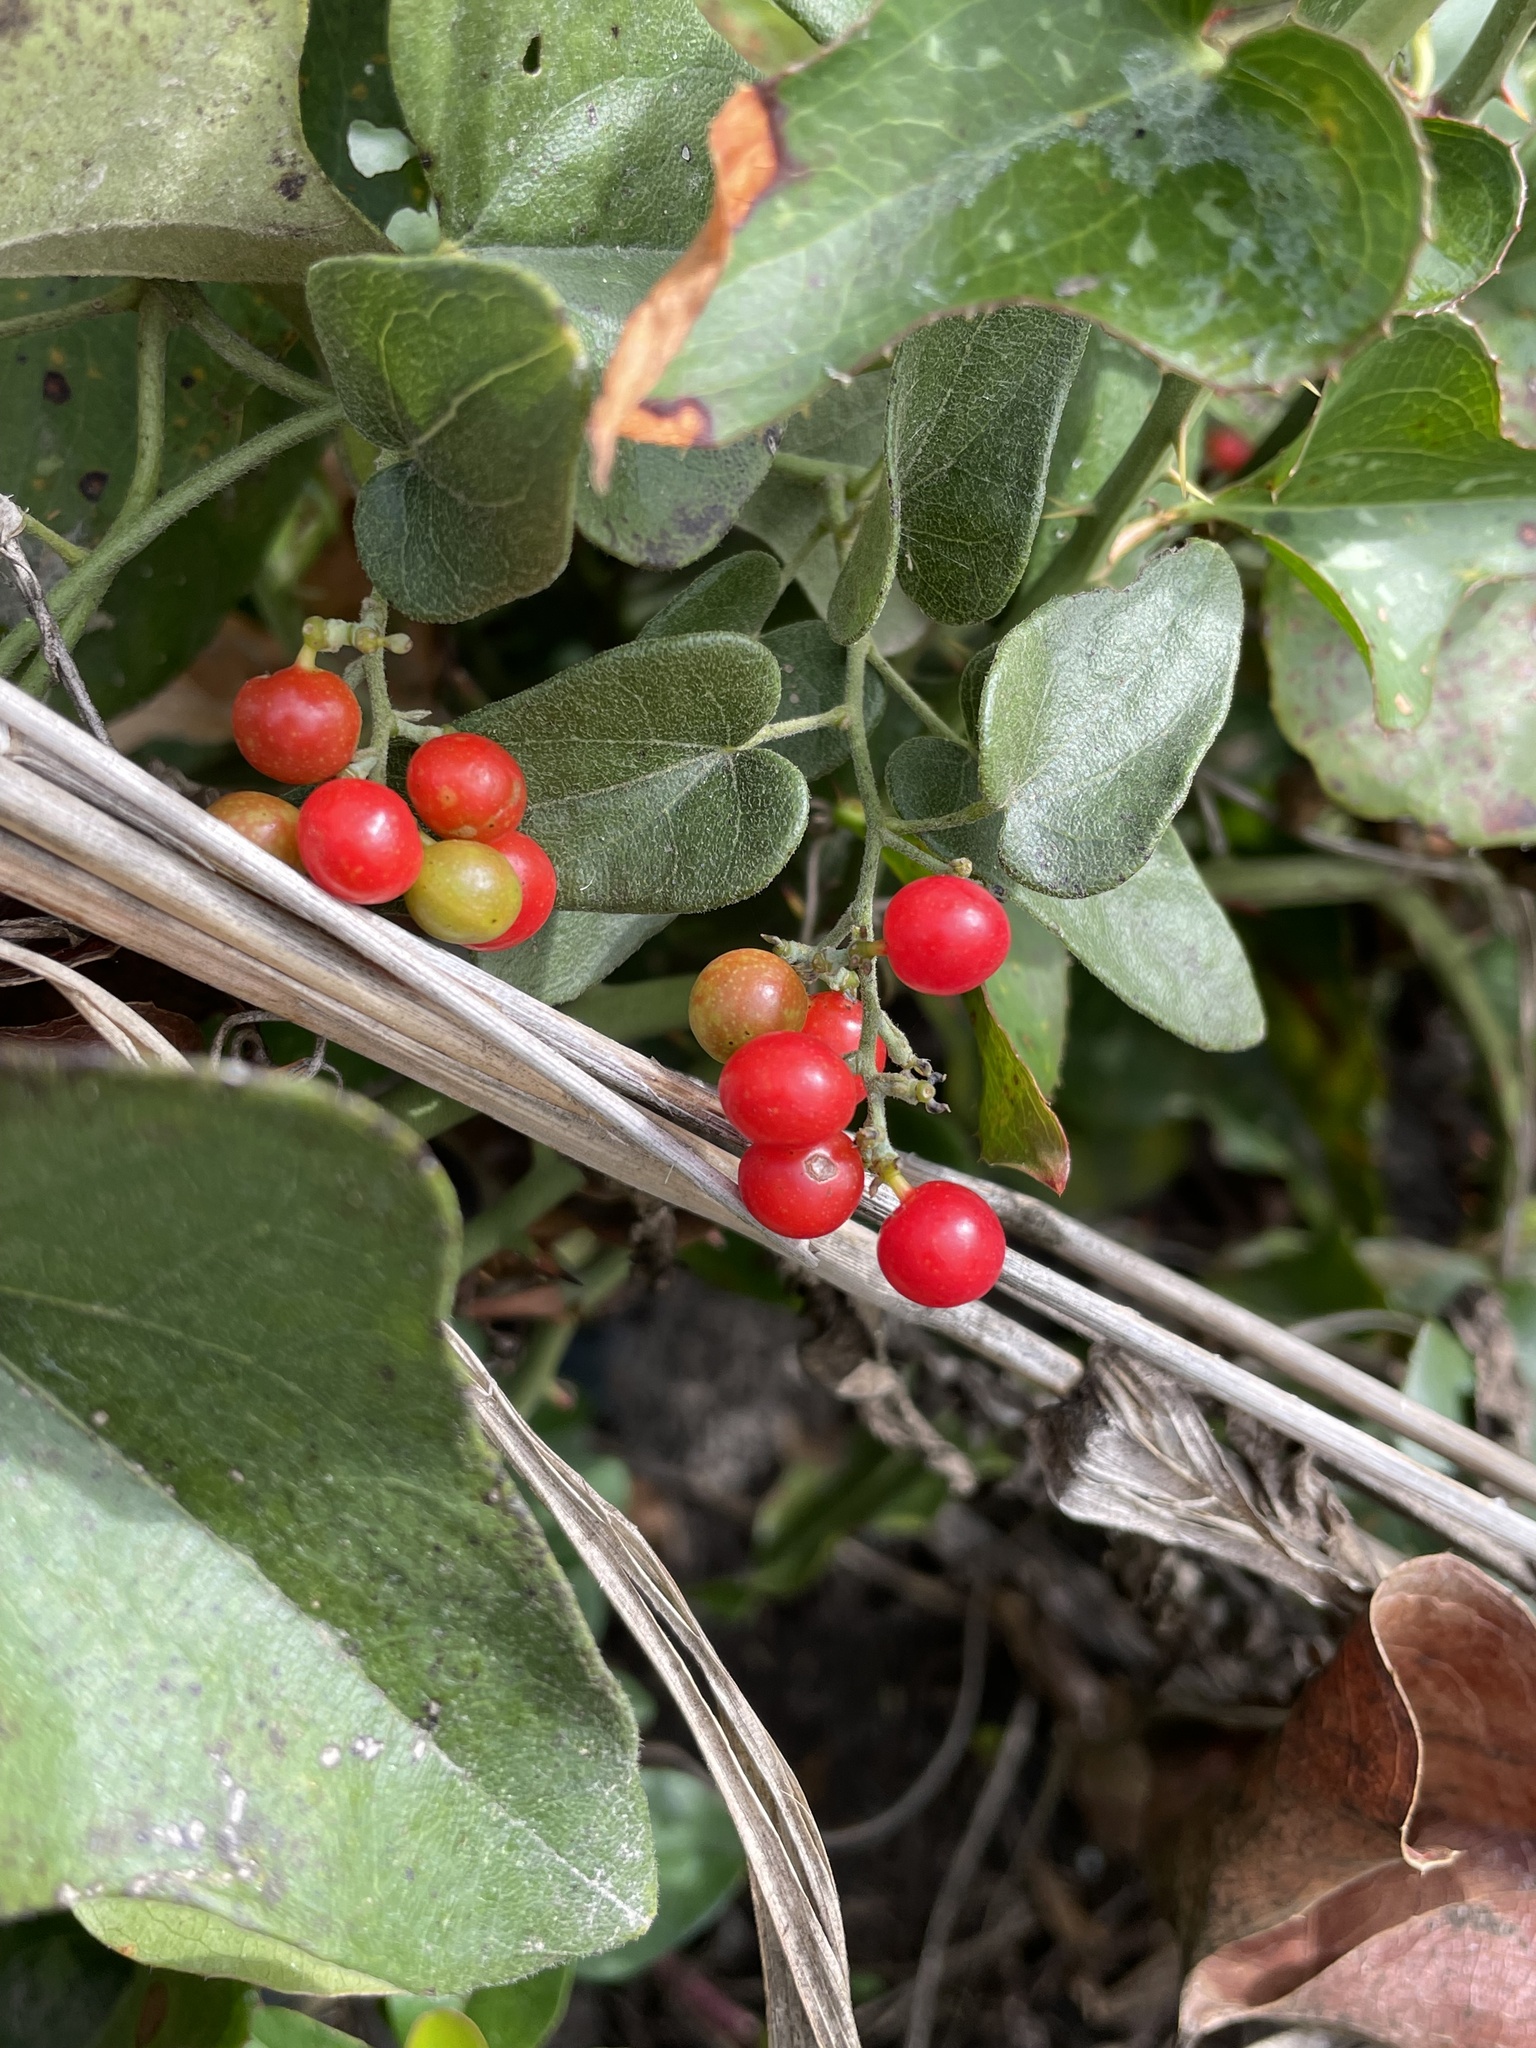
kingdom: Plantae
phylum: Tracheophyta
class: Magnoliopsida
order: Ranunculales
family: Menispermaceae
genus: Cocculus
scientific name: Cocculus carolinus
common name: Carolina moonseed
